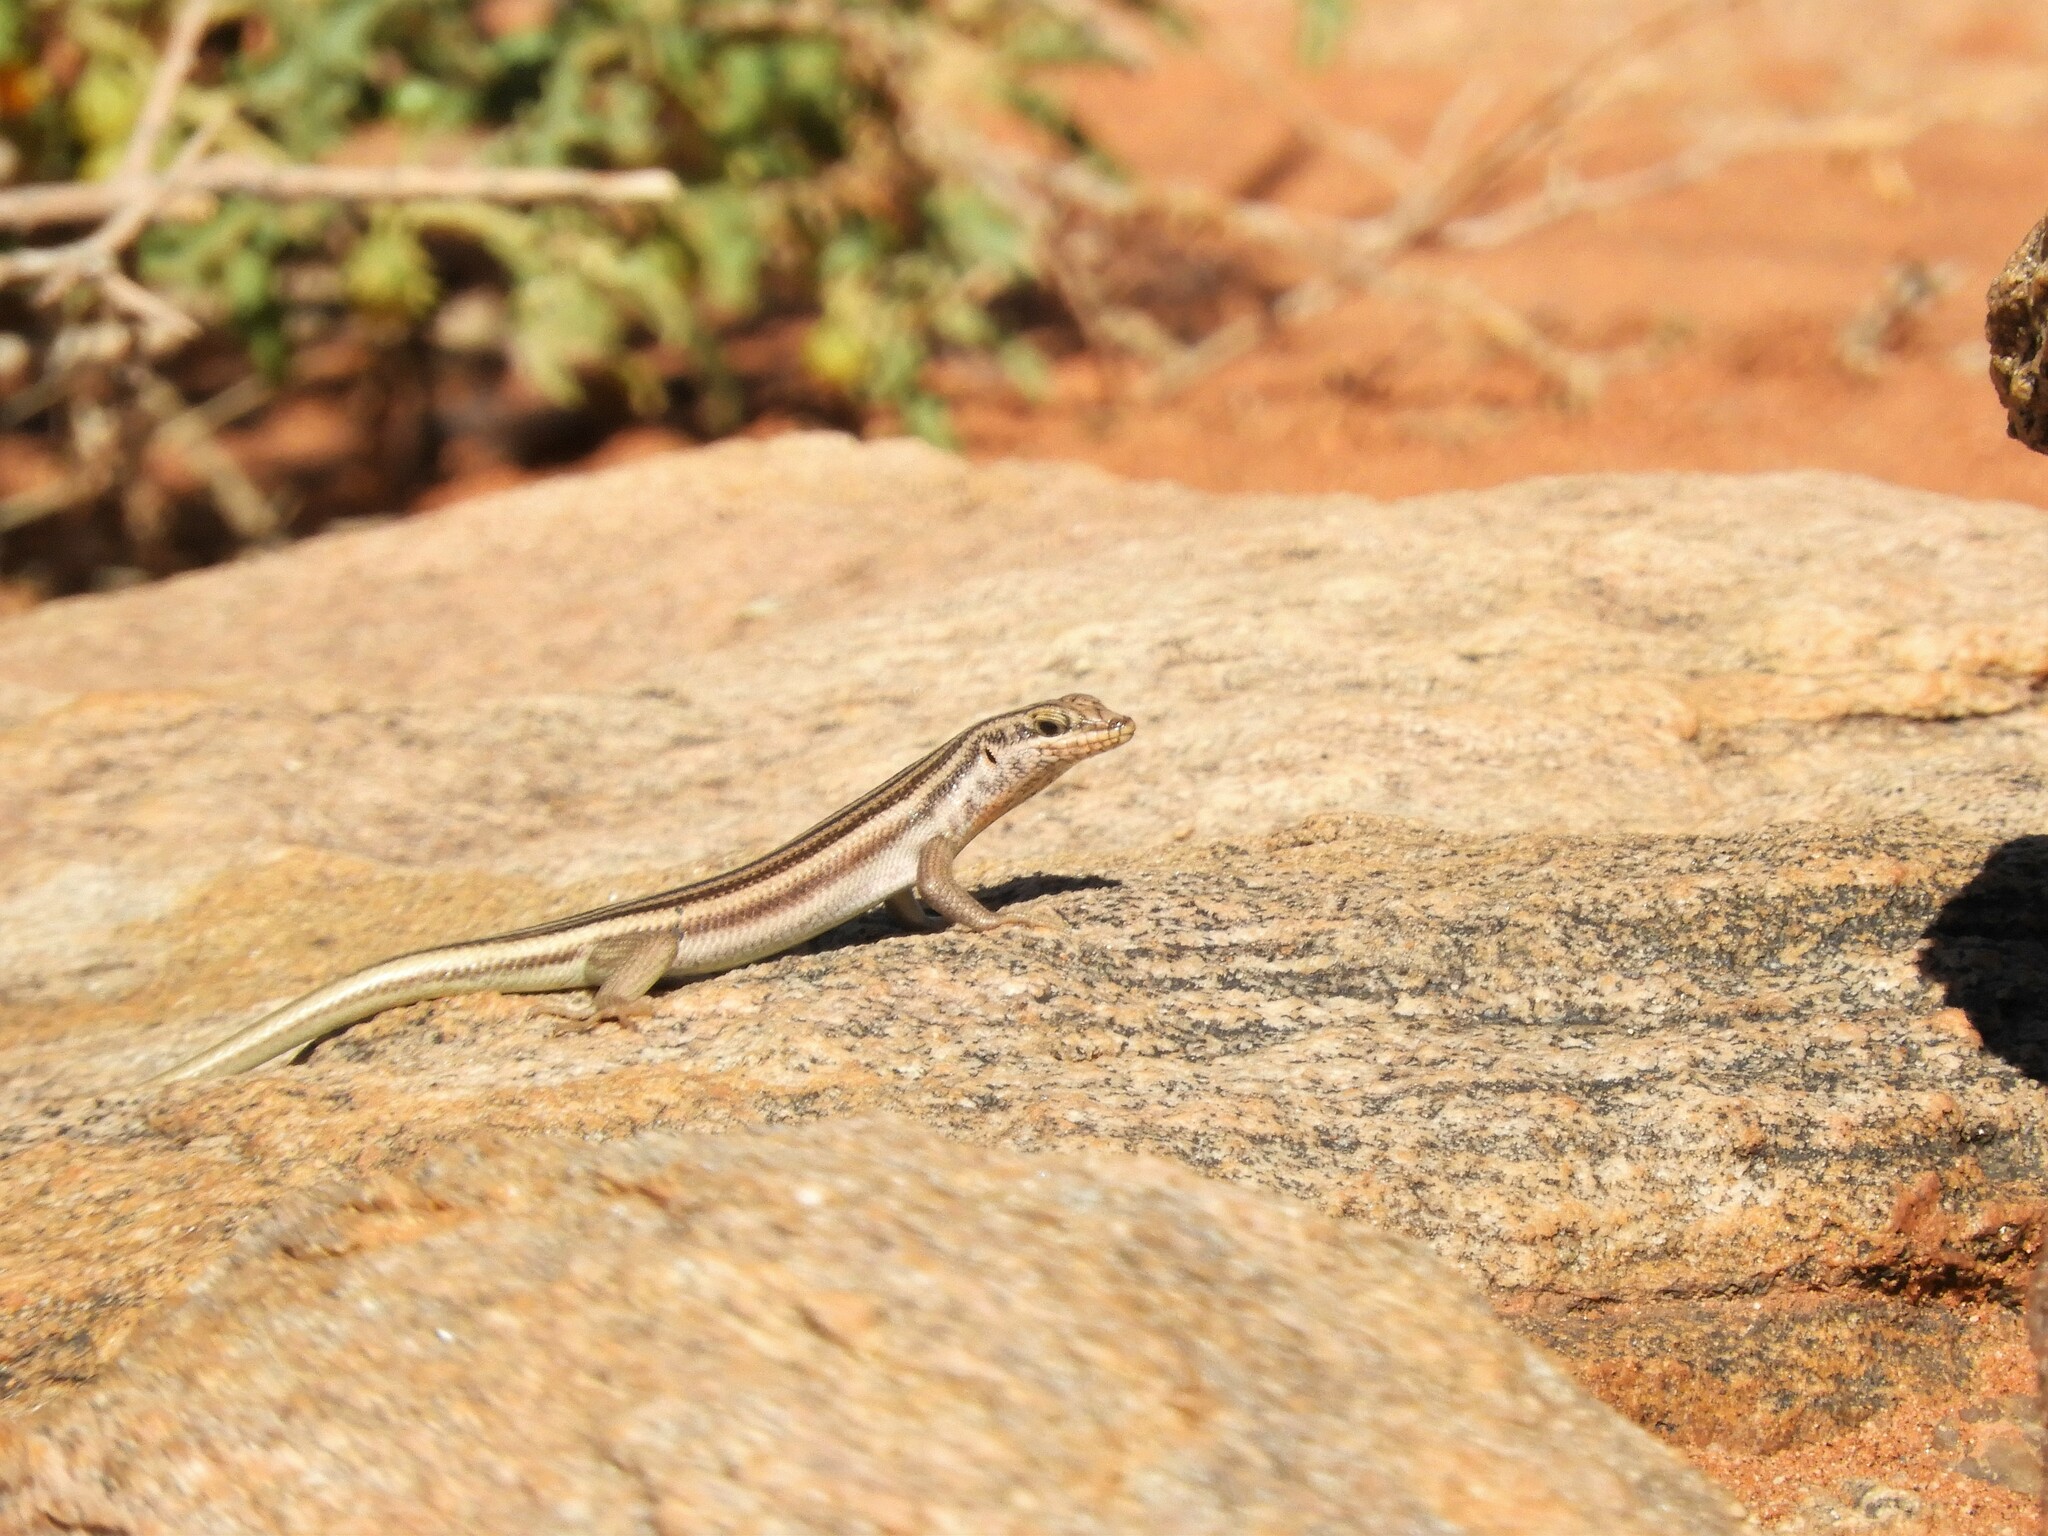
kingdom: Animalia
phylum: Chordata
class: Squamata
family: Scincidae
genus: Trachylepis
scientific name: Trachylepis sulcata
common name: Western rock skink
